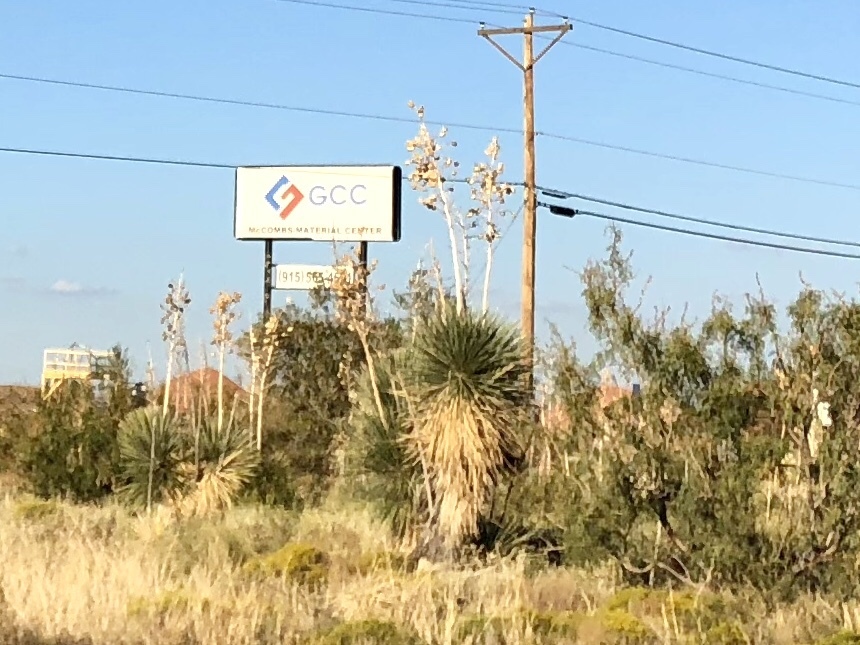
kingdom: Plantae
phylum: Tracheophyta
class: Liliopsida
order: Asparagales
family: Asparagaceae
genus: Yucca
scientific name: Yucca elata
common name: Palmella
